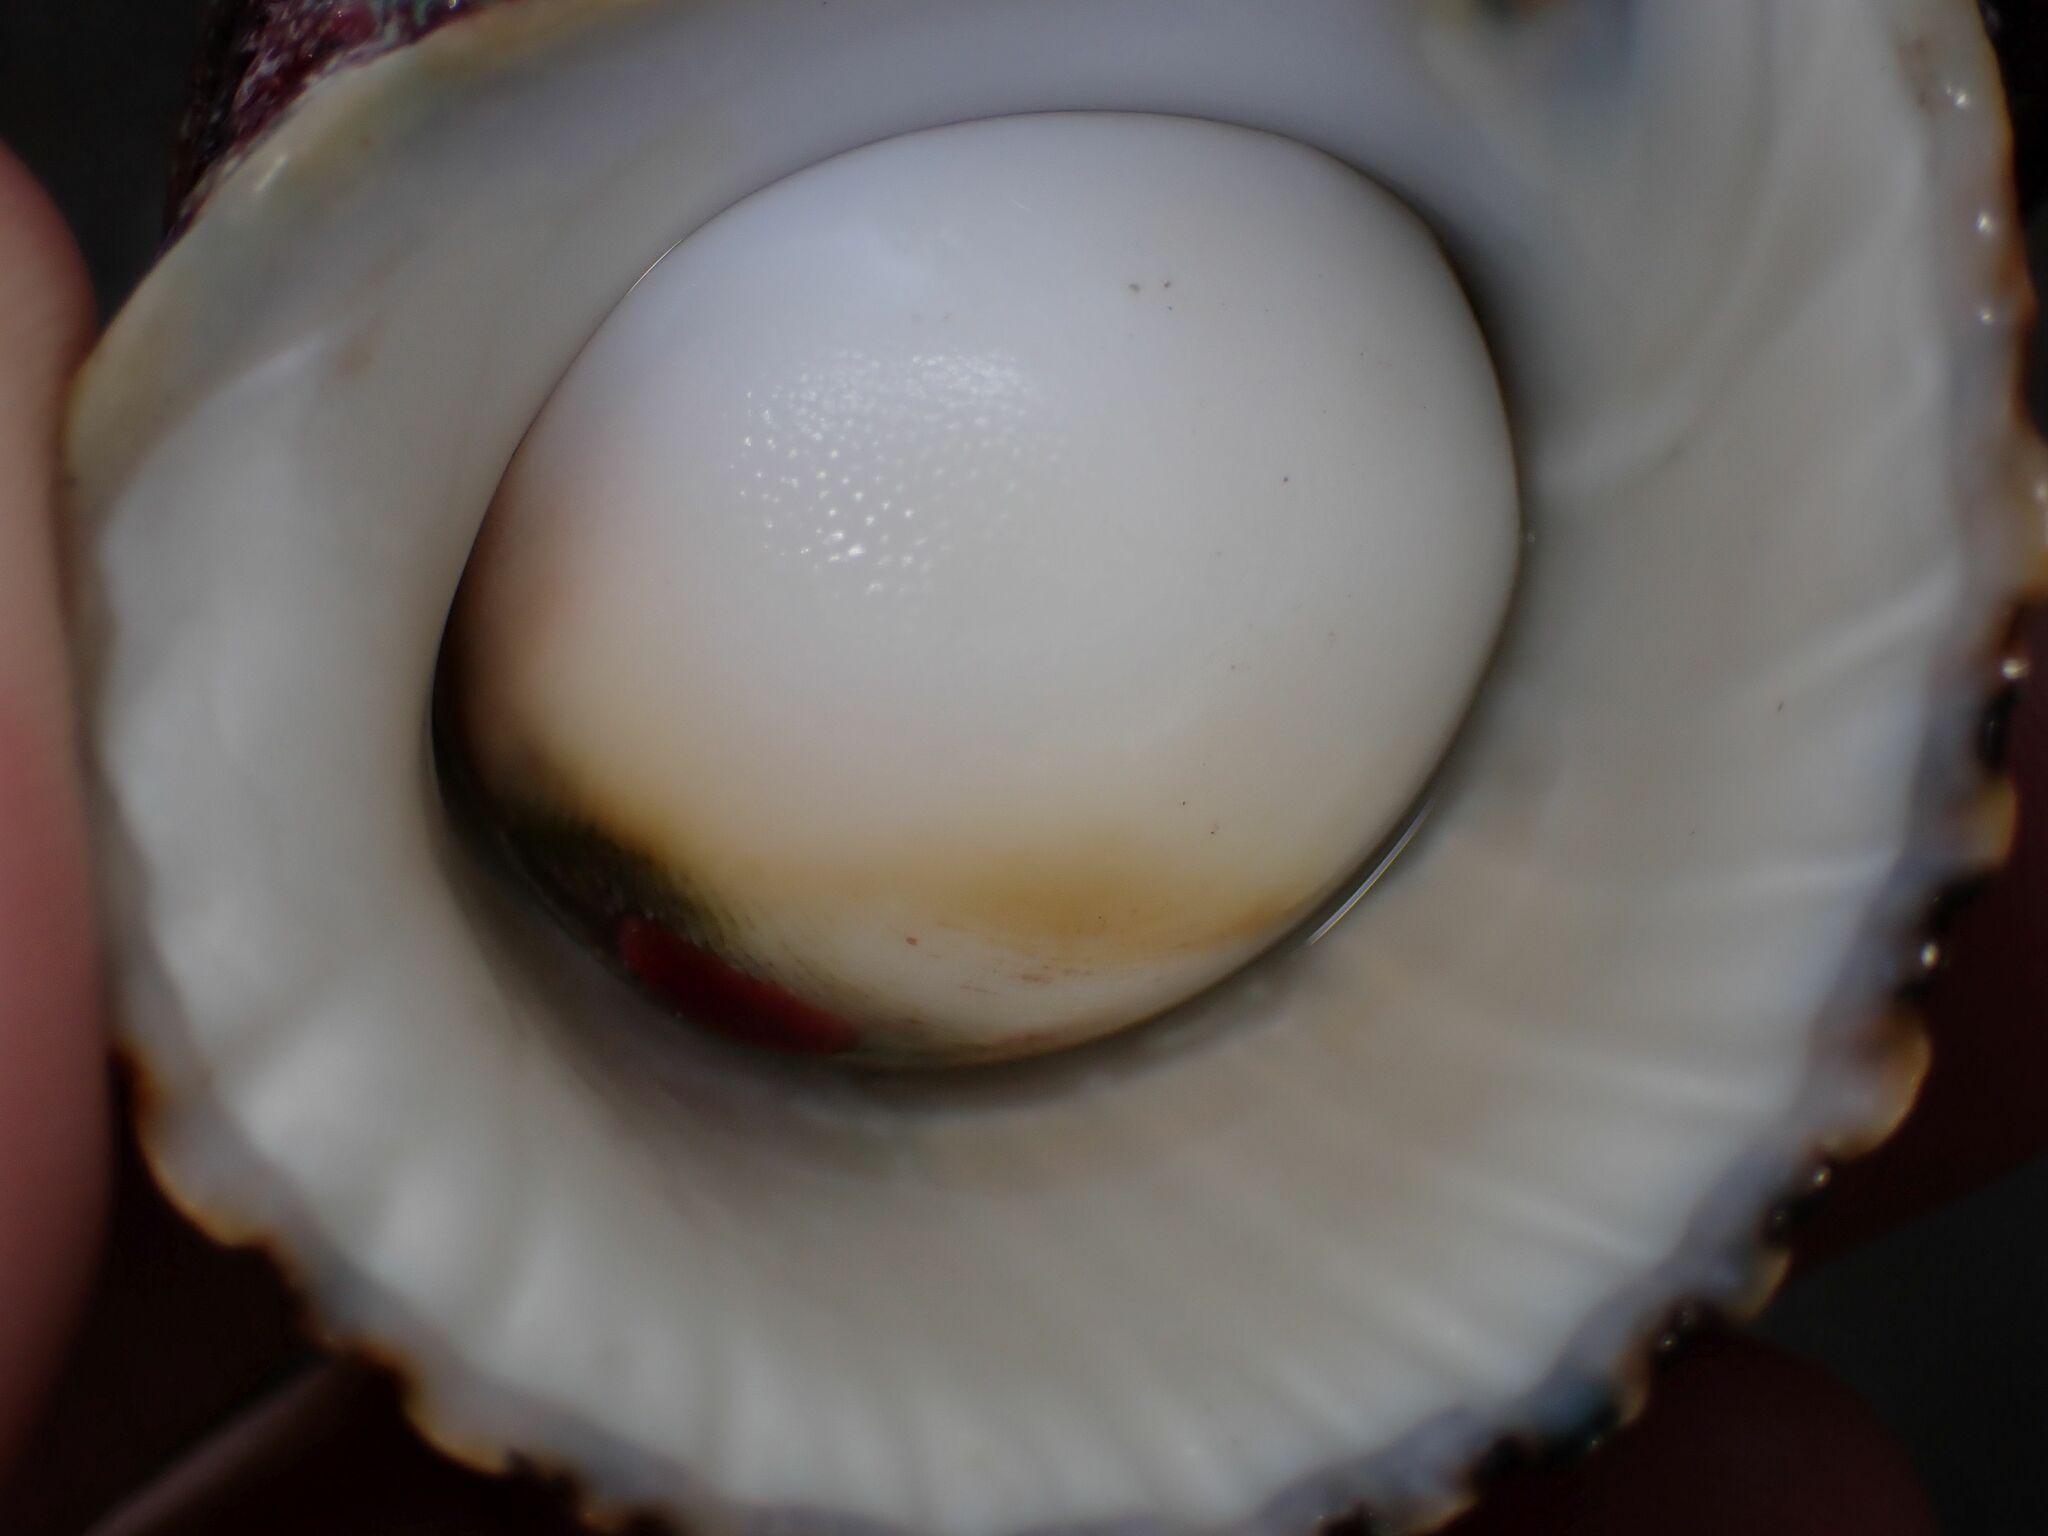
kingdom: Animalia
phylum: Mollusca
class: Gastropoda
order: Trochida
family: Turbinidae
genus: Turbo
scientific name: Turbo argyrostomus
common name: Silver-mouthed turban
